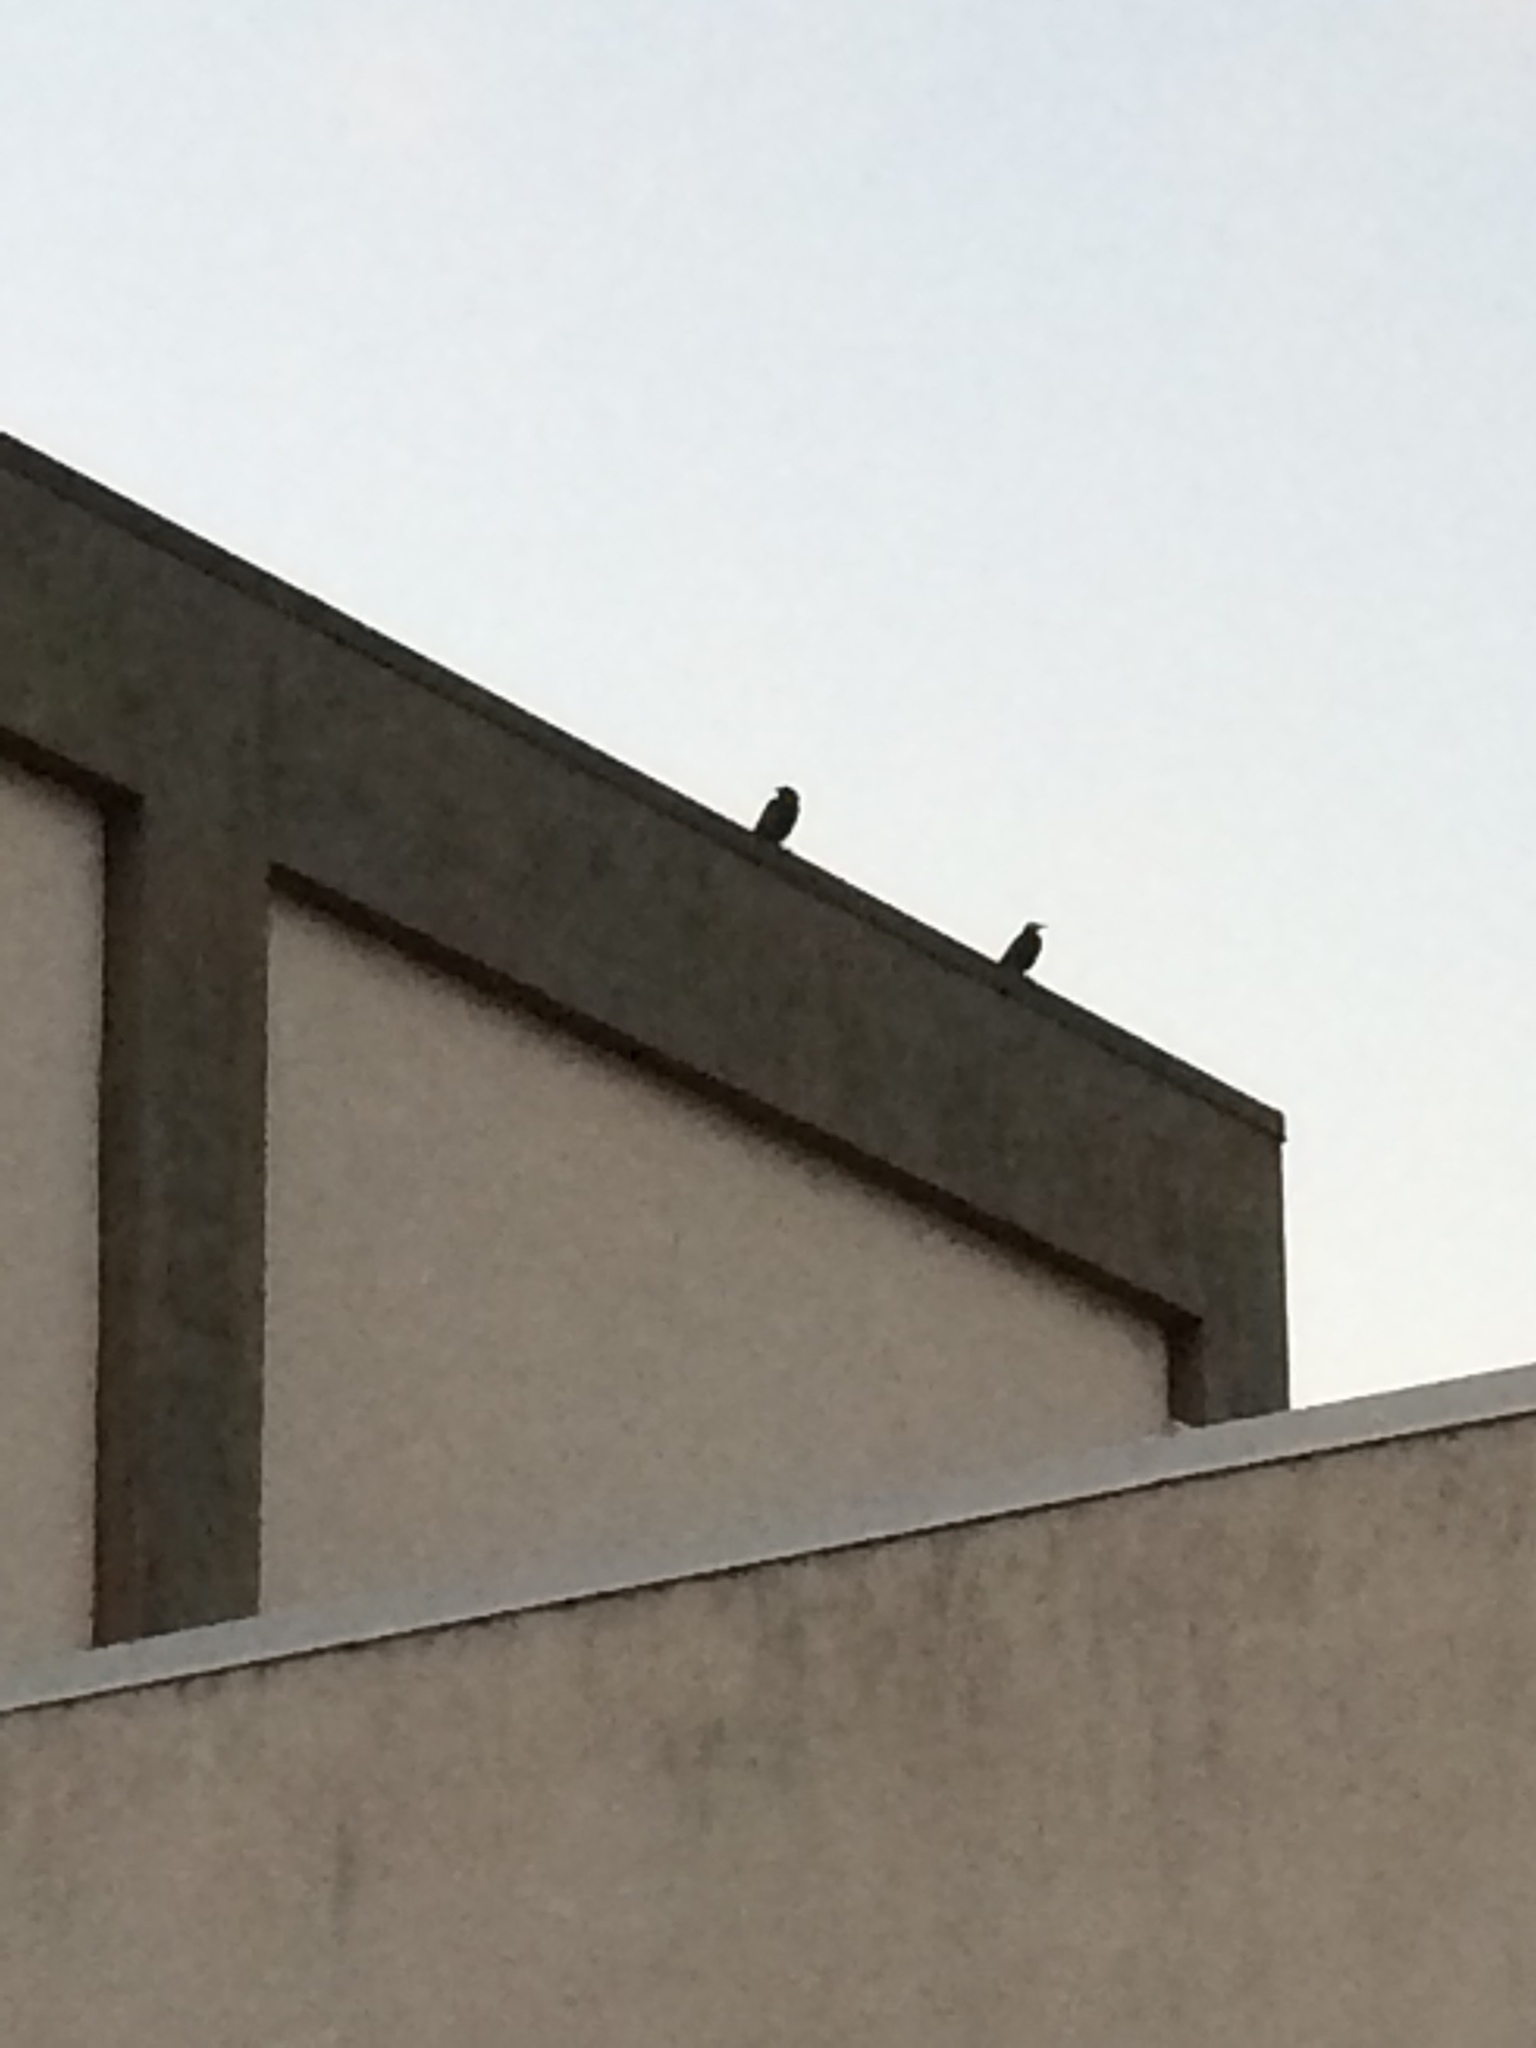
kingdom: Animalia
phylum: Chordata
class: Aves
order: Passeriformes
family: Corvidae
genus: Corvus
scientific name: Corvus brachyrhynchos
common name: American crow
